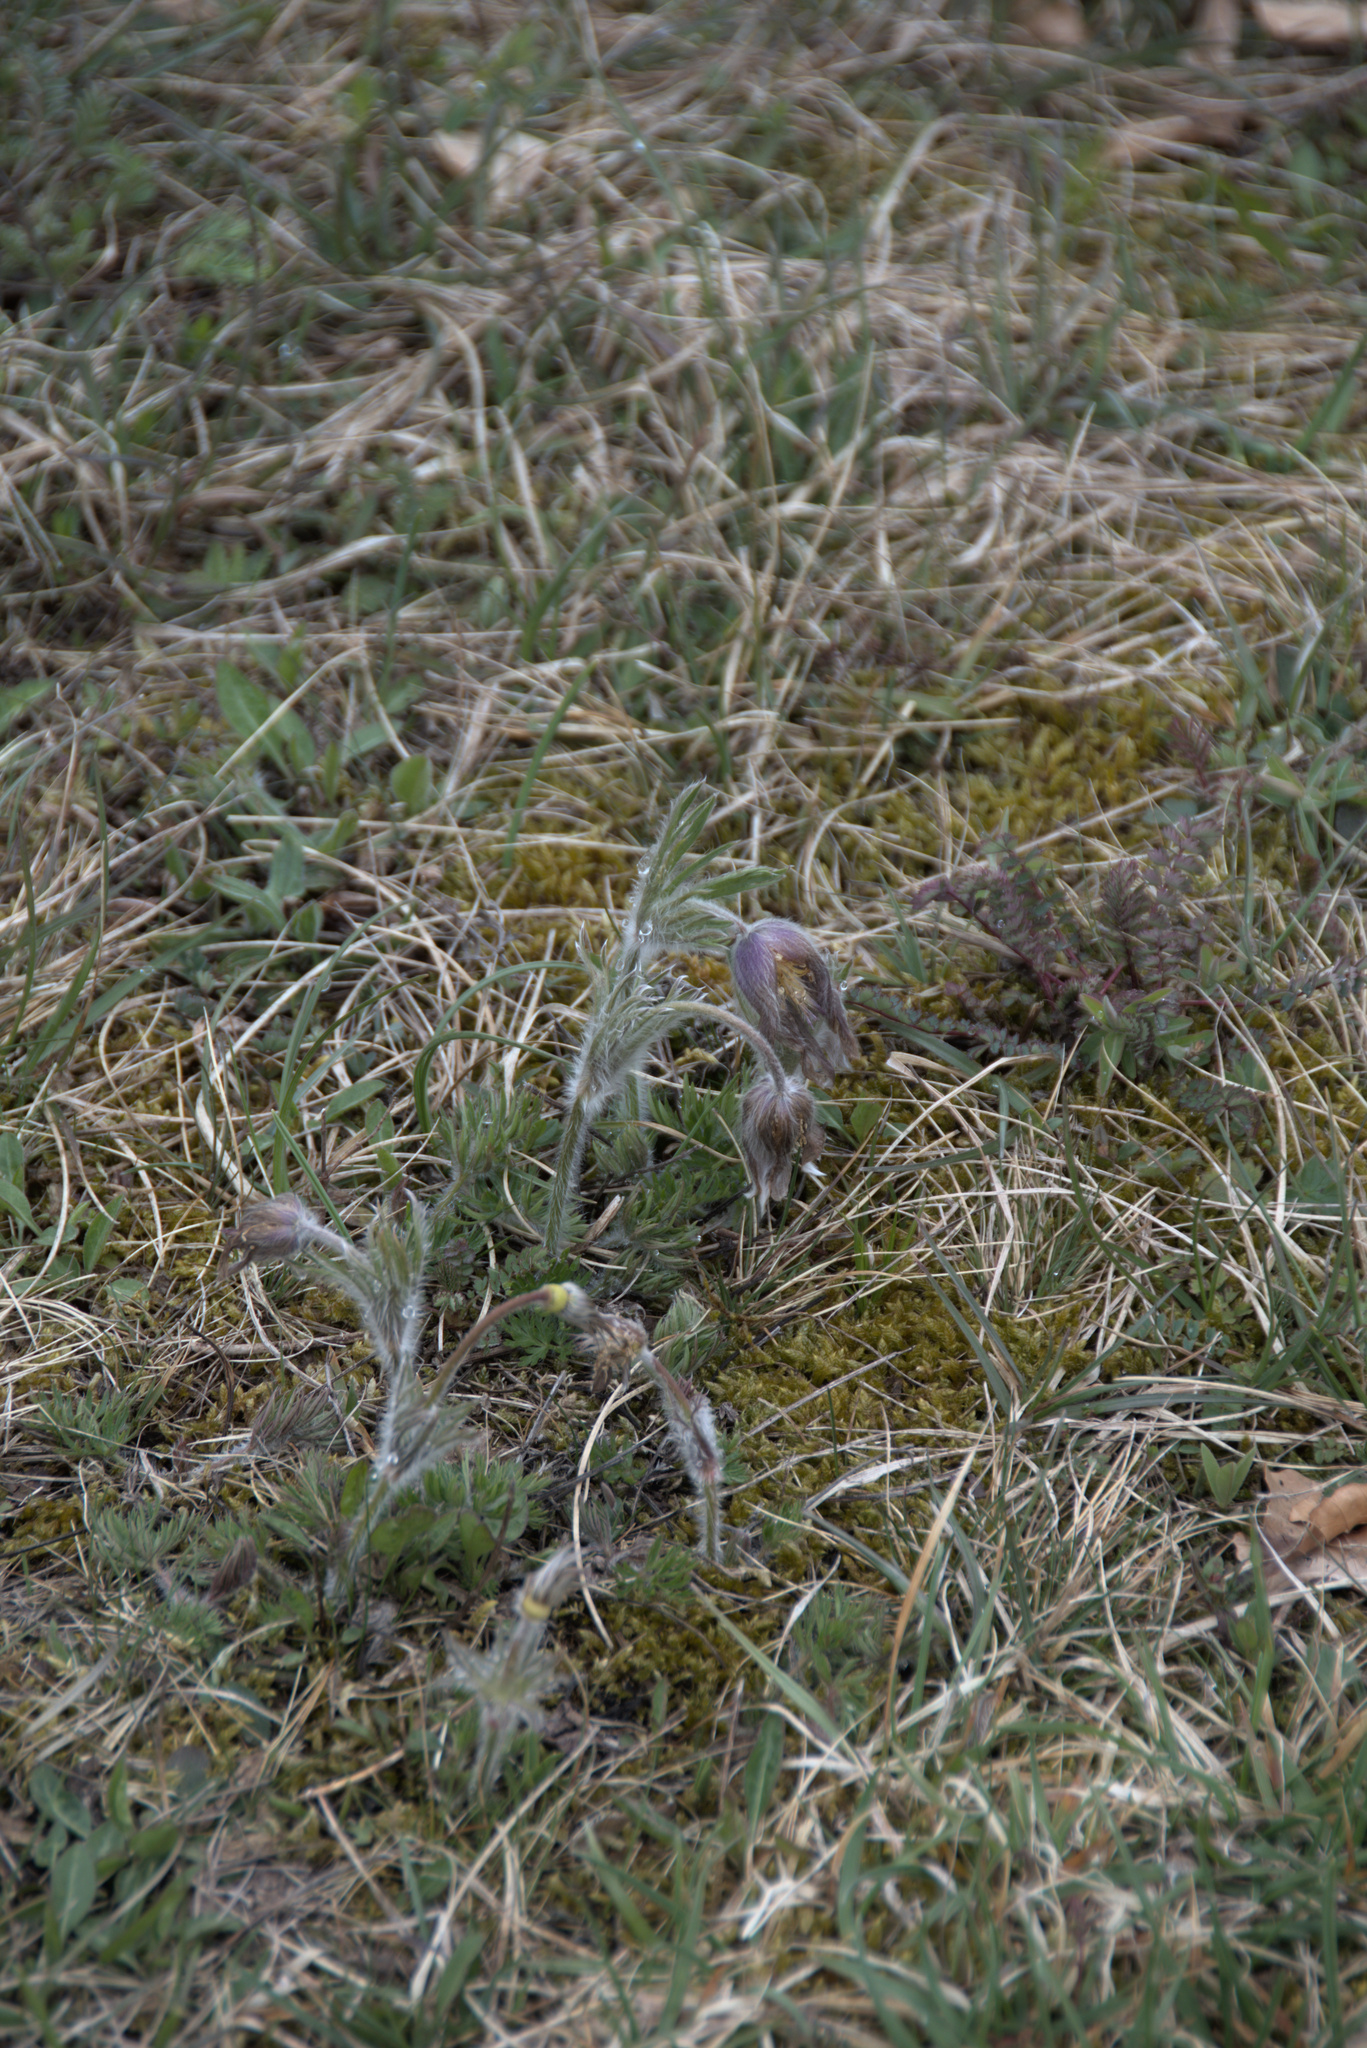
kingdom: Plantae
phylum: Tracheophyta
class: Magnoliopsida
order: Gentianales
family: Gentianaceae
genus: Gentiana
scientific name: Gentiana verna
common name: Spring gentian
